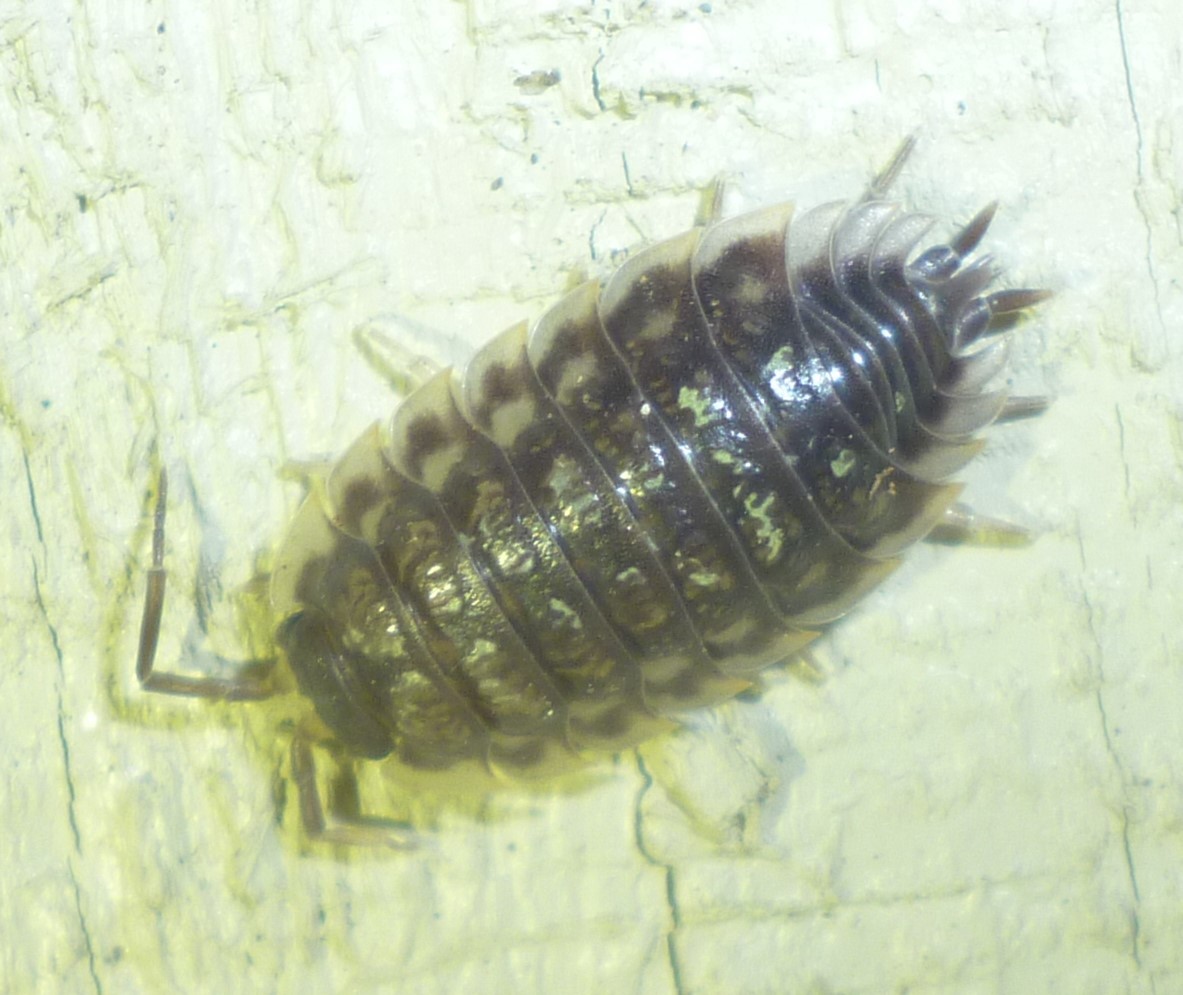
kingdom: Animalia
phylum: Arthropoda
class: Malacostraca
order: Isopoda
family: Oniscidae
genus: Oniscus
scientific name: Oniscus asellus
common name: Common shiny woodlouse
